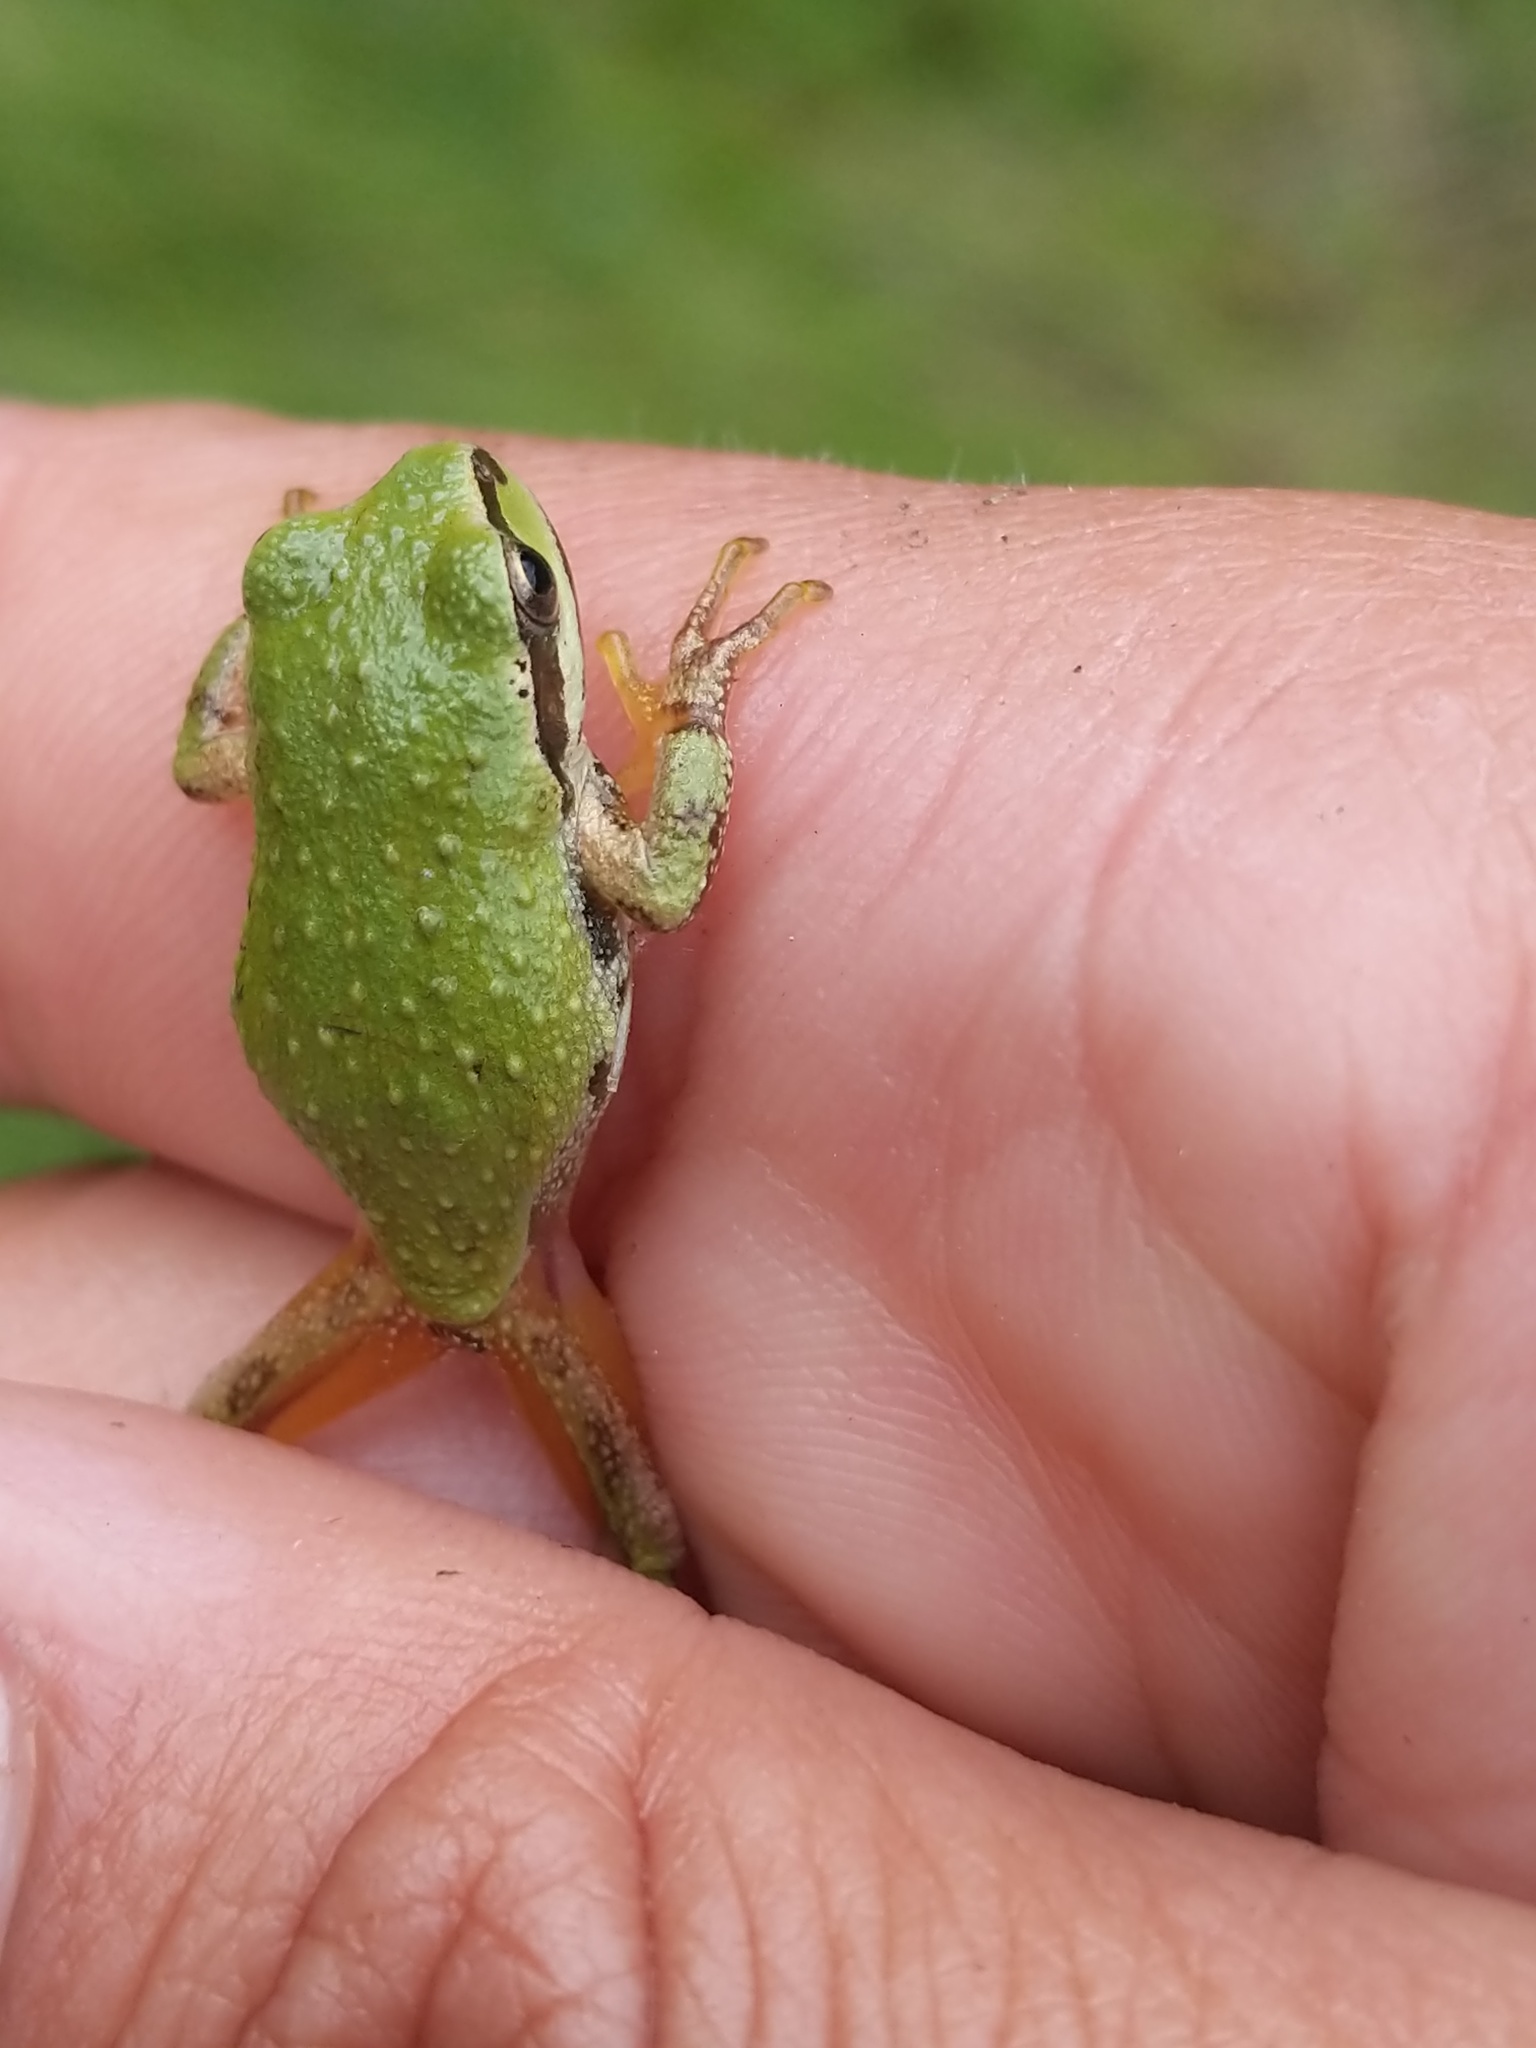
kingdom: Animalia
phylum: Chordata
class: Amphibia
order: Anura
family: Hylidae
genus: Pseudacris
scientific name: Pseudacris regilla
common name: Pacific chorus frog
